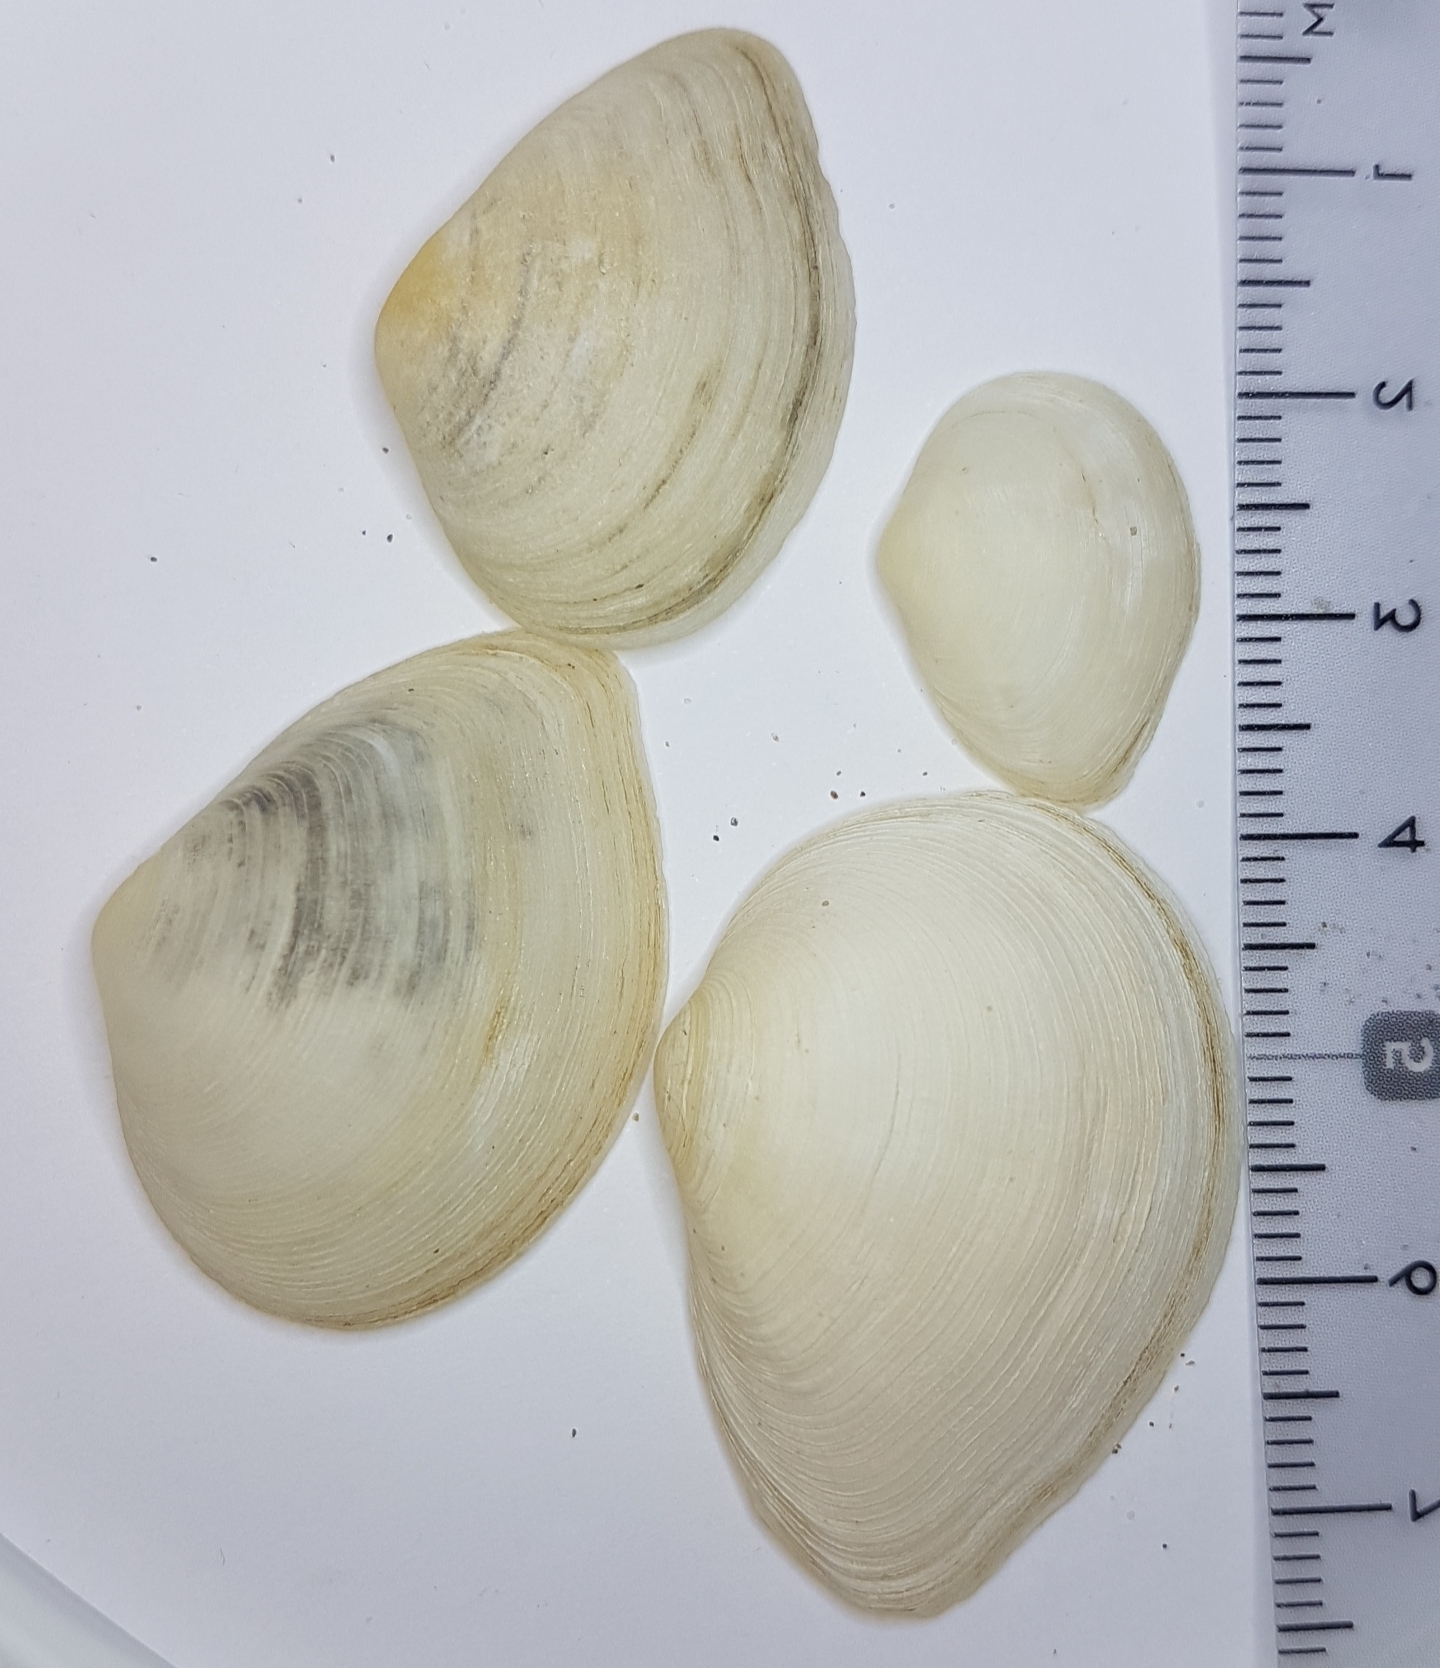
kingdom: Animalia
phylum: Mollusca
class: Bivalvia
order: Cardiida
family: Tellinidae
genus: Gastrana
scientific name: Gastrana fragilis
